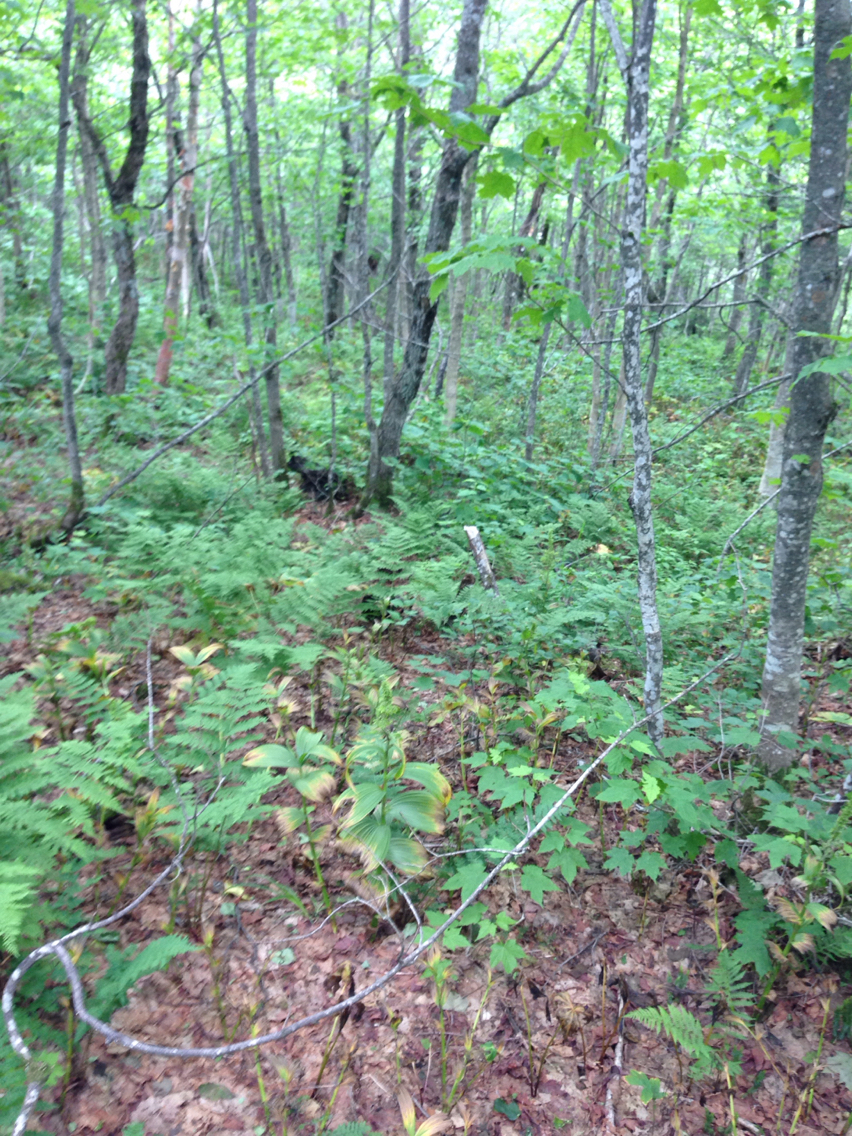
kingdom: Plantae
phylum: Tracheophyta
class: Liliopsida
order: Liliales
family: Melanthiaceae
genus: Veratrum
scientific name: Veratrum viride
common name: American false hellebore
